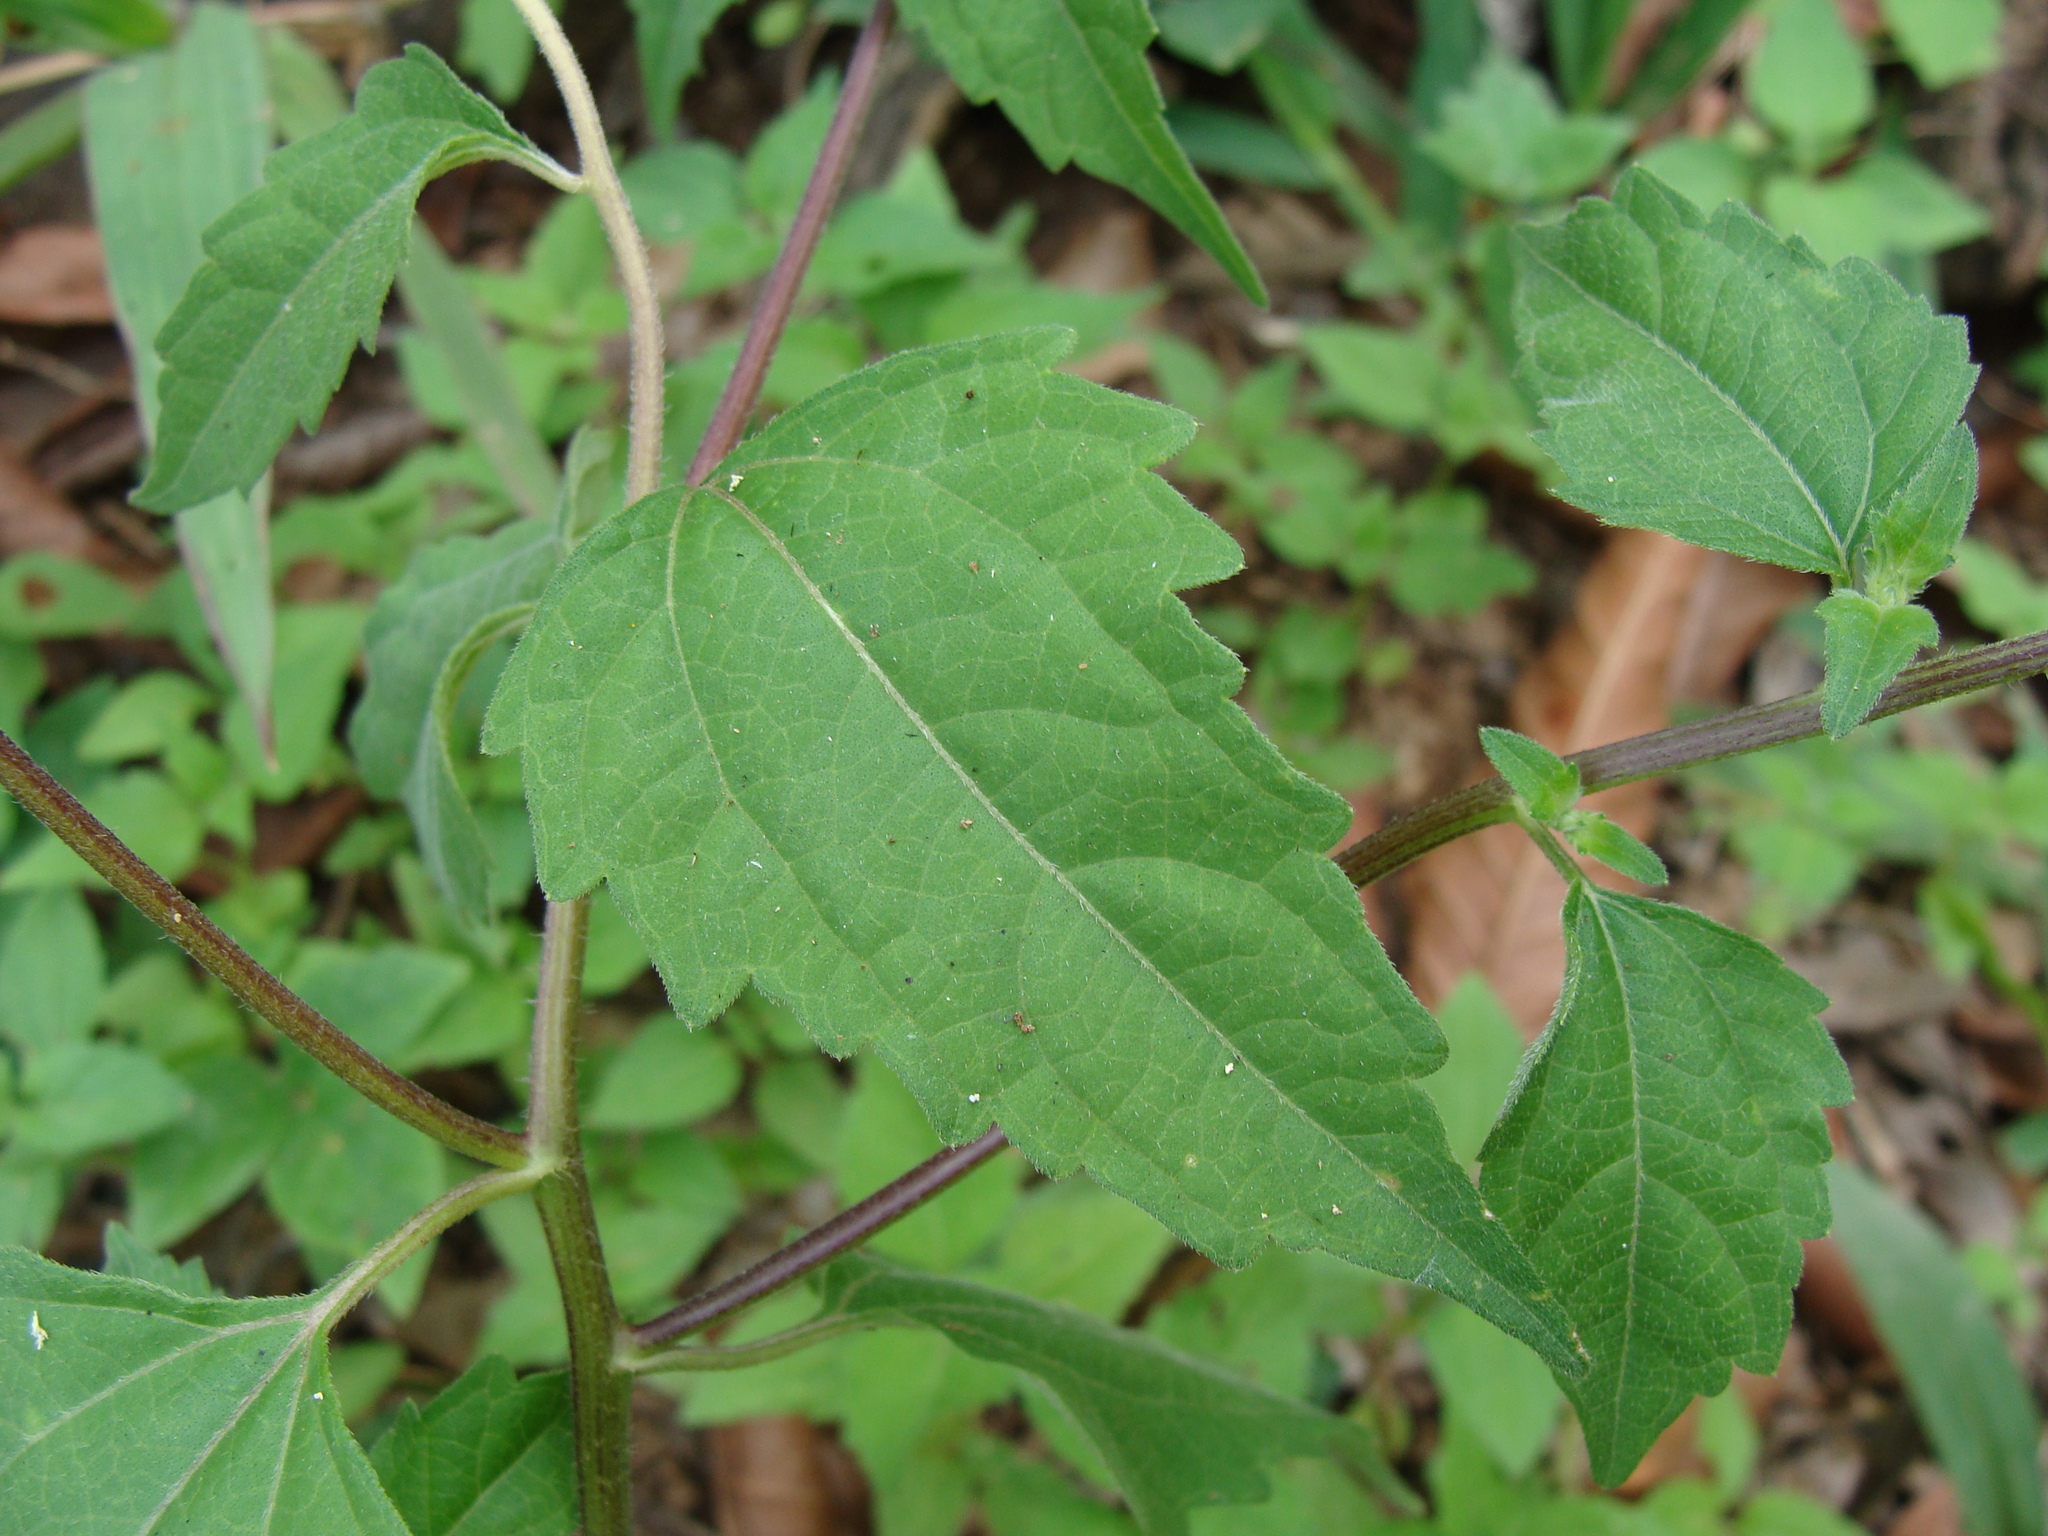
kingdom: Plantae
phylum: Tracheophyta
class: Magnoliopsida
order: Asterales
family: Asteraceae
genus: Sclerocarpus
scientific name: Sclerocarpus divaricatus
